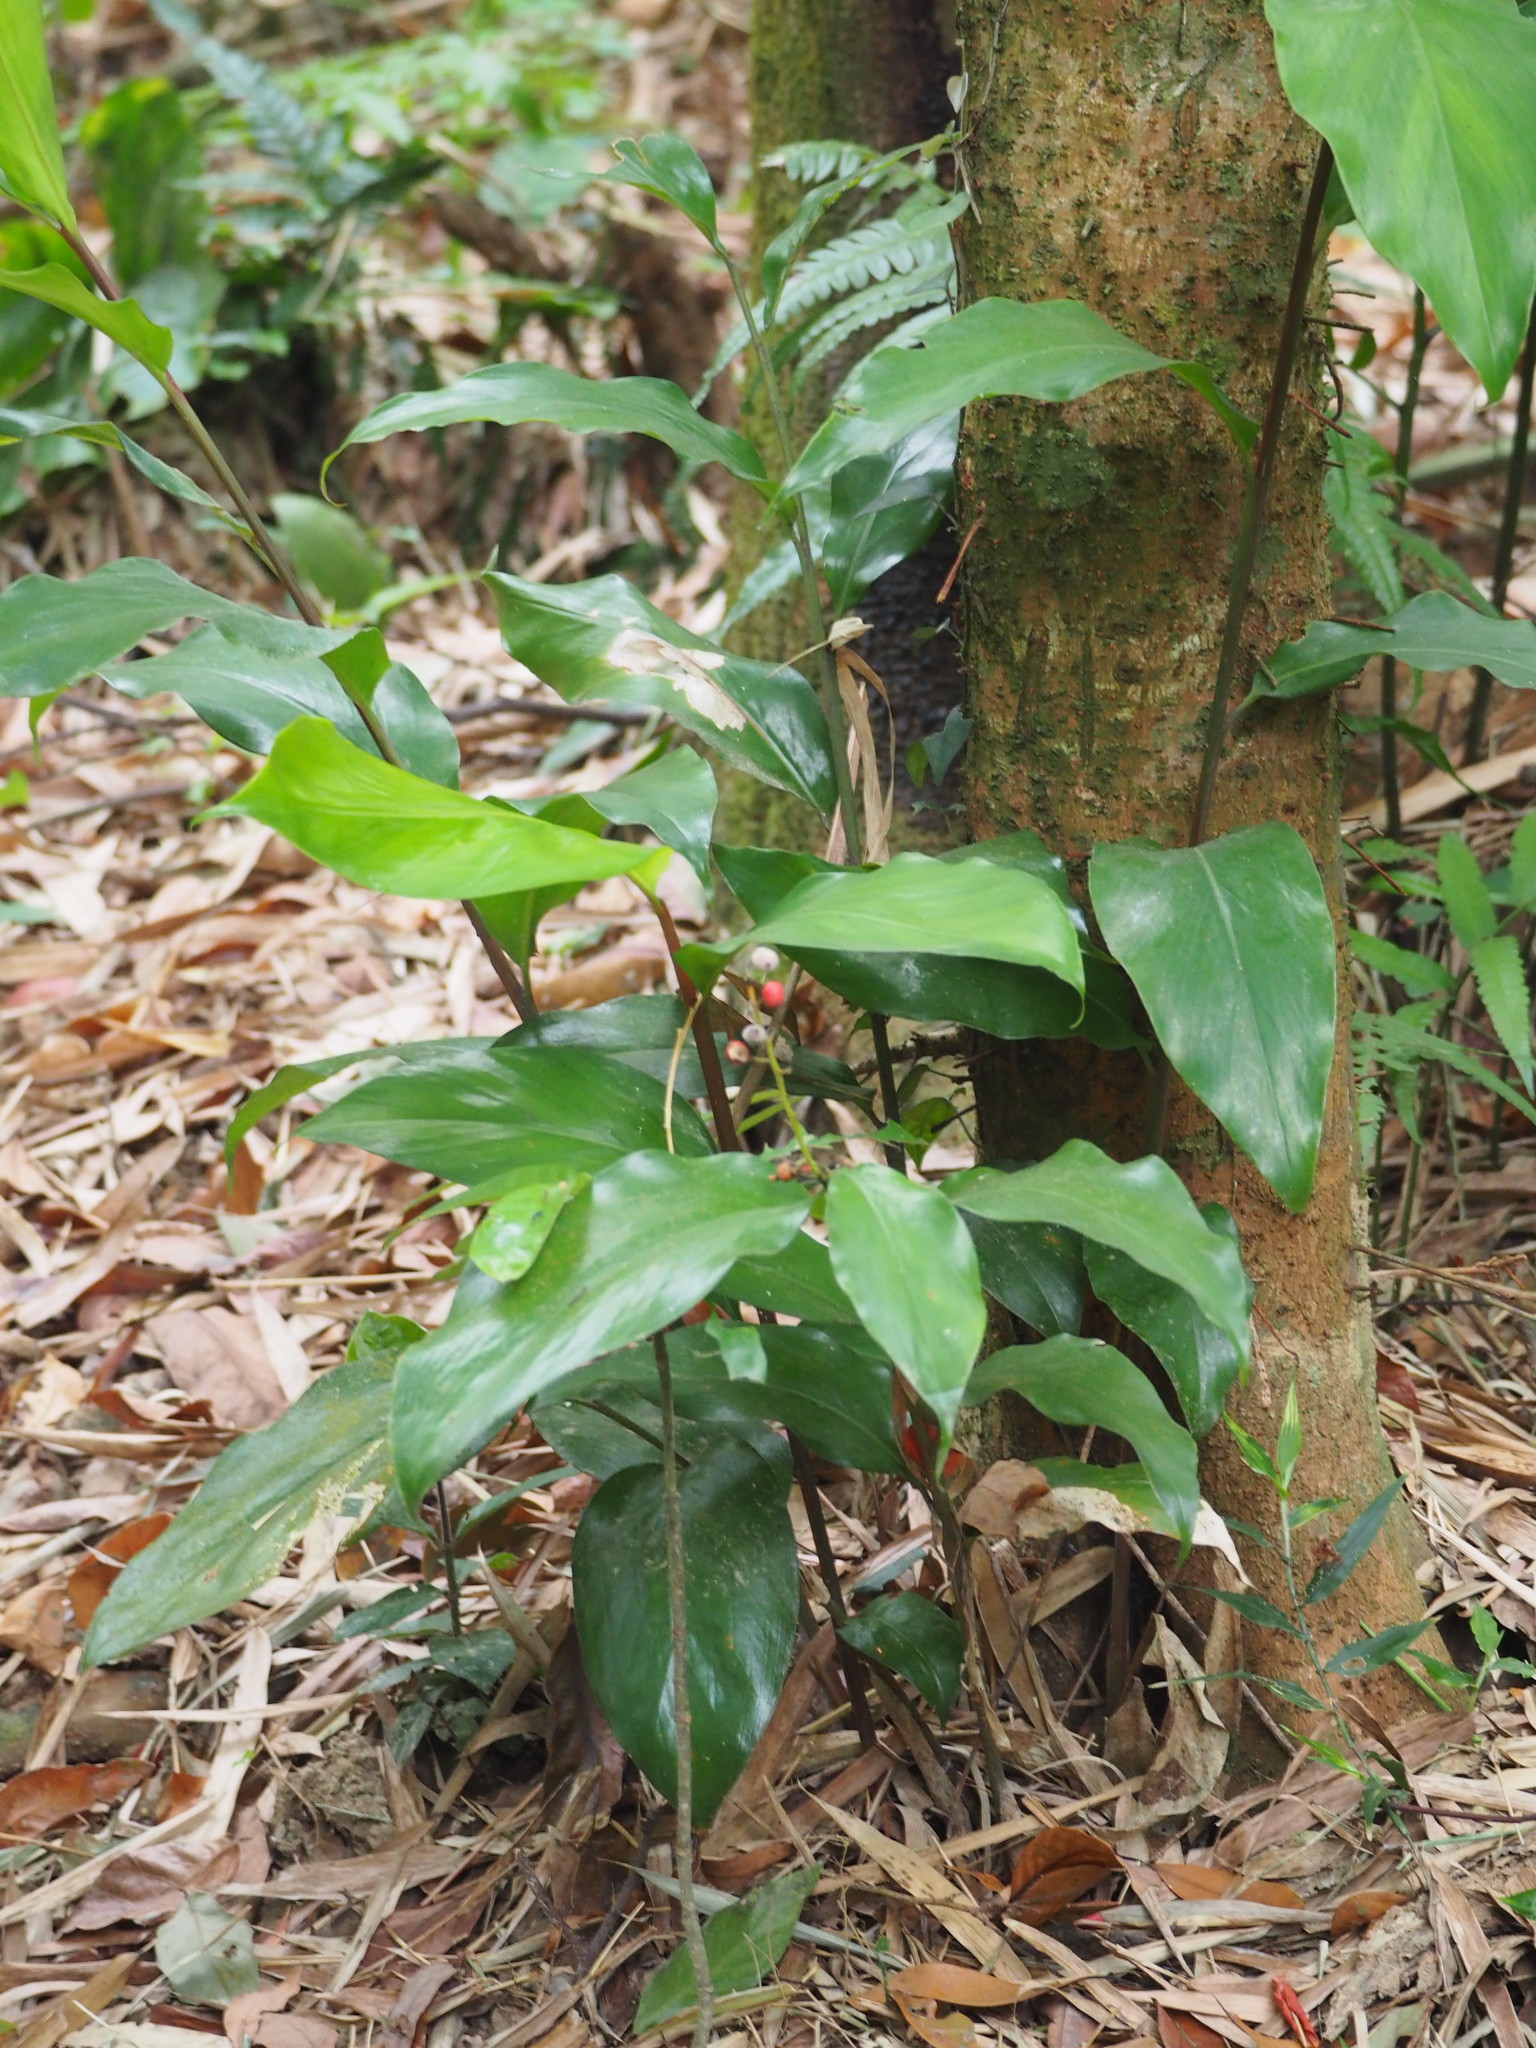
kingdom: Plantae
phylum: Tracheophyta
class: Liliopsida
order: Zingiberales
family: Zingiberaceae
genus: Alpinia
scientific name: Alpinia intermedia
